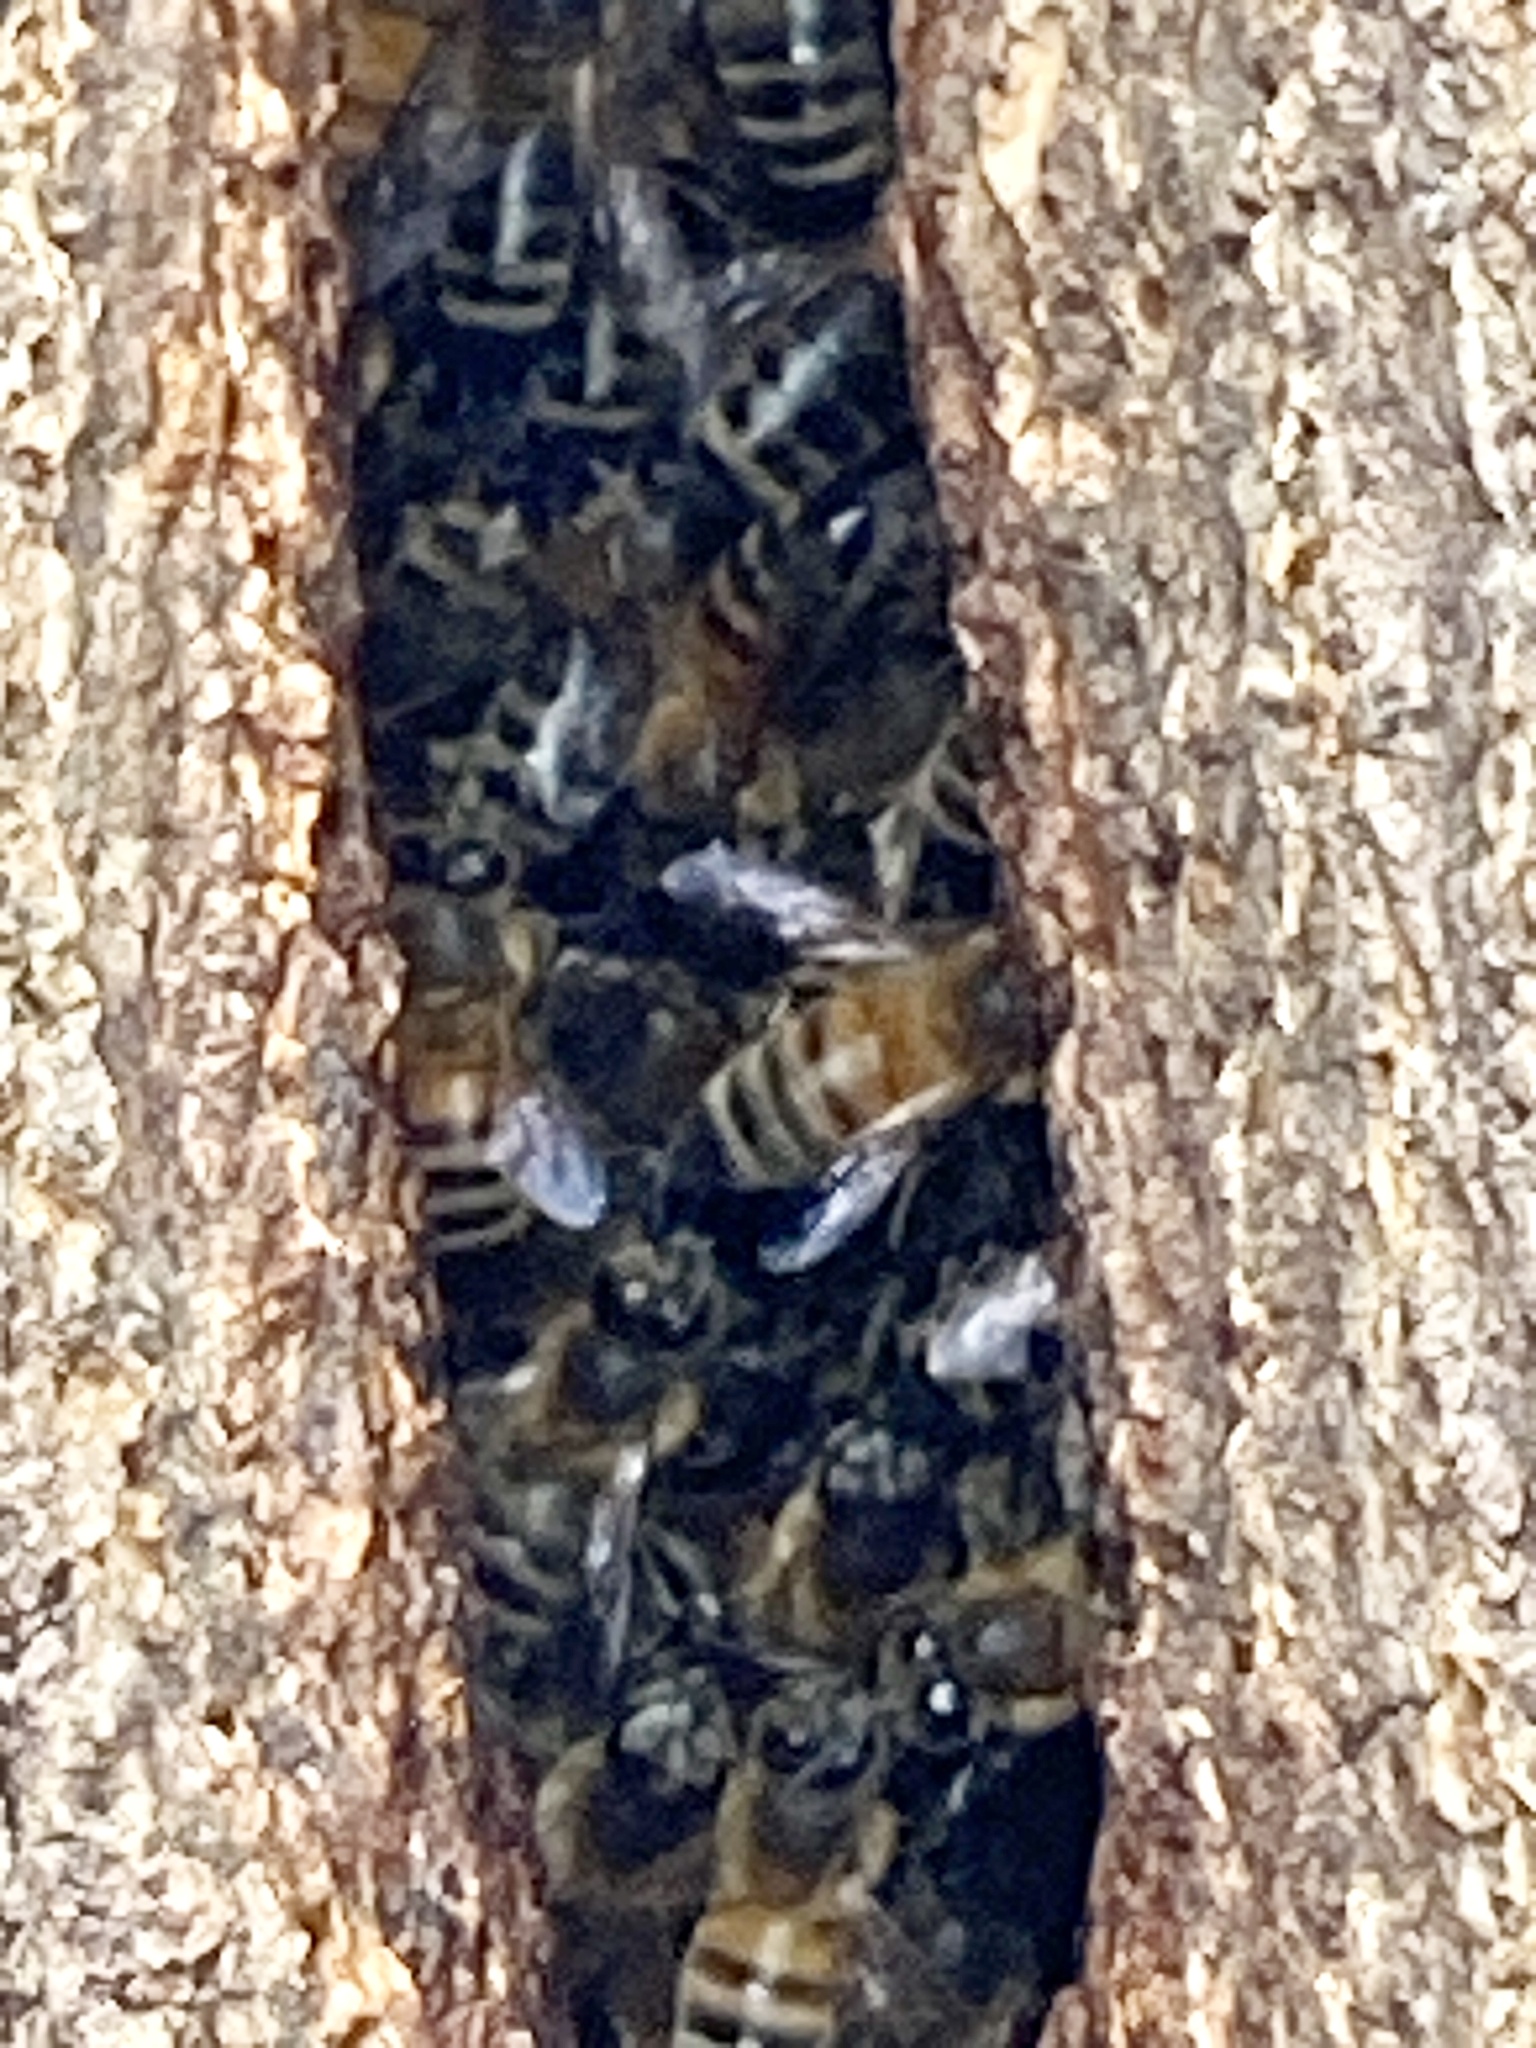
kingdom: Animalia
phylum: Arthropoda
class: Insecta
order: Hymenoptera
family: Apidae
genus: Apis
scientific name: Apis mellifera
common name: Honey bee
